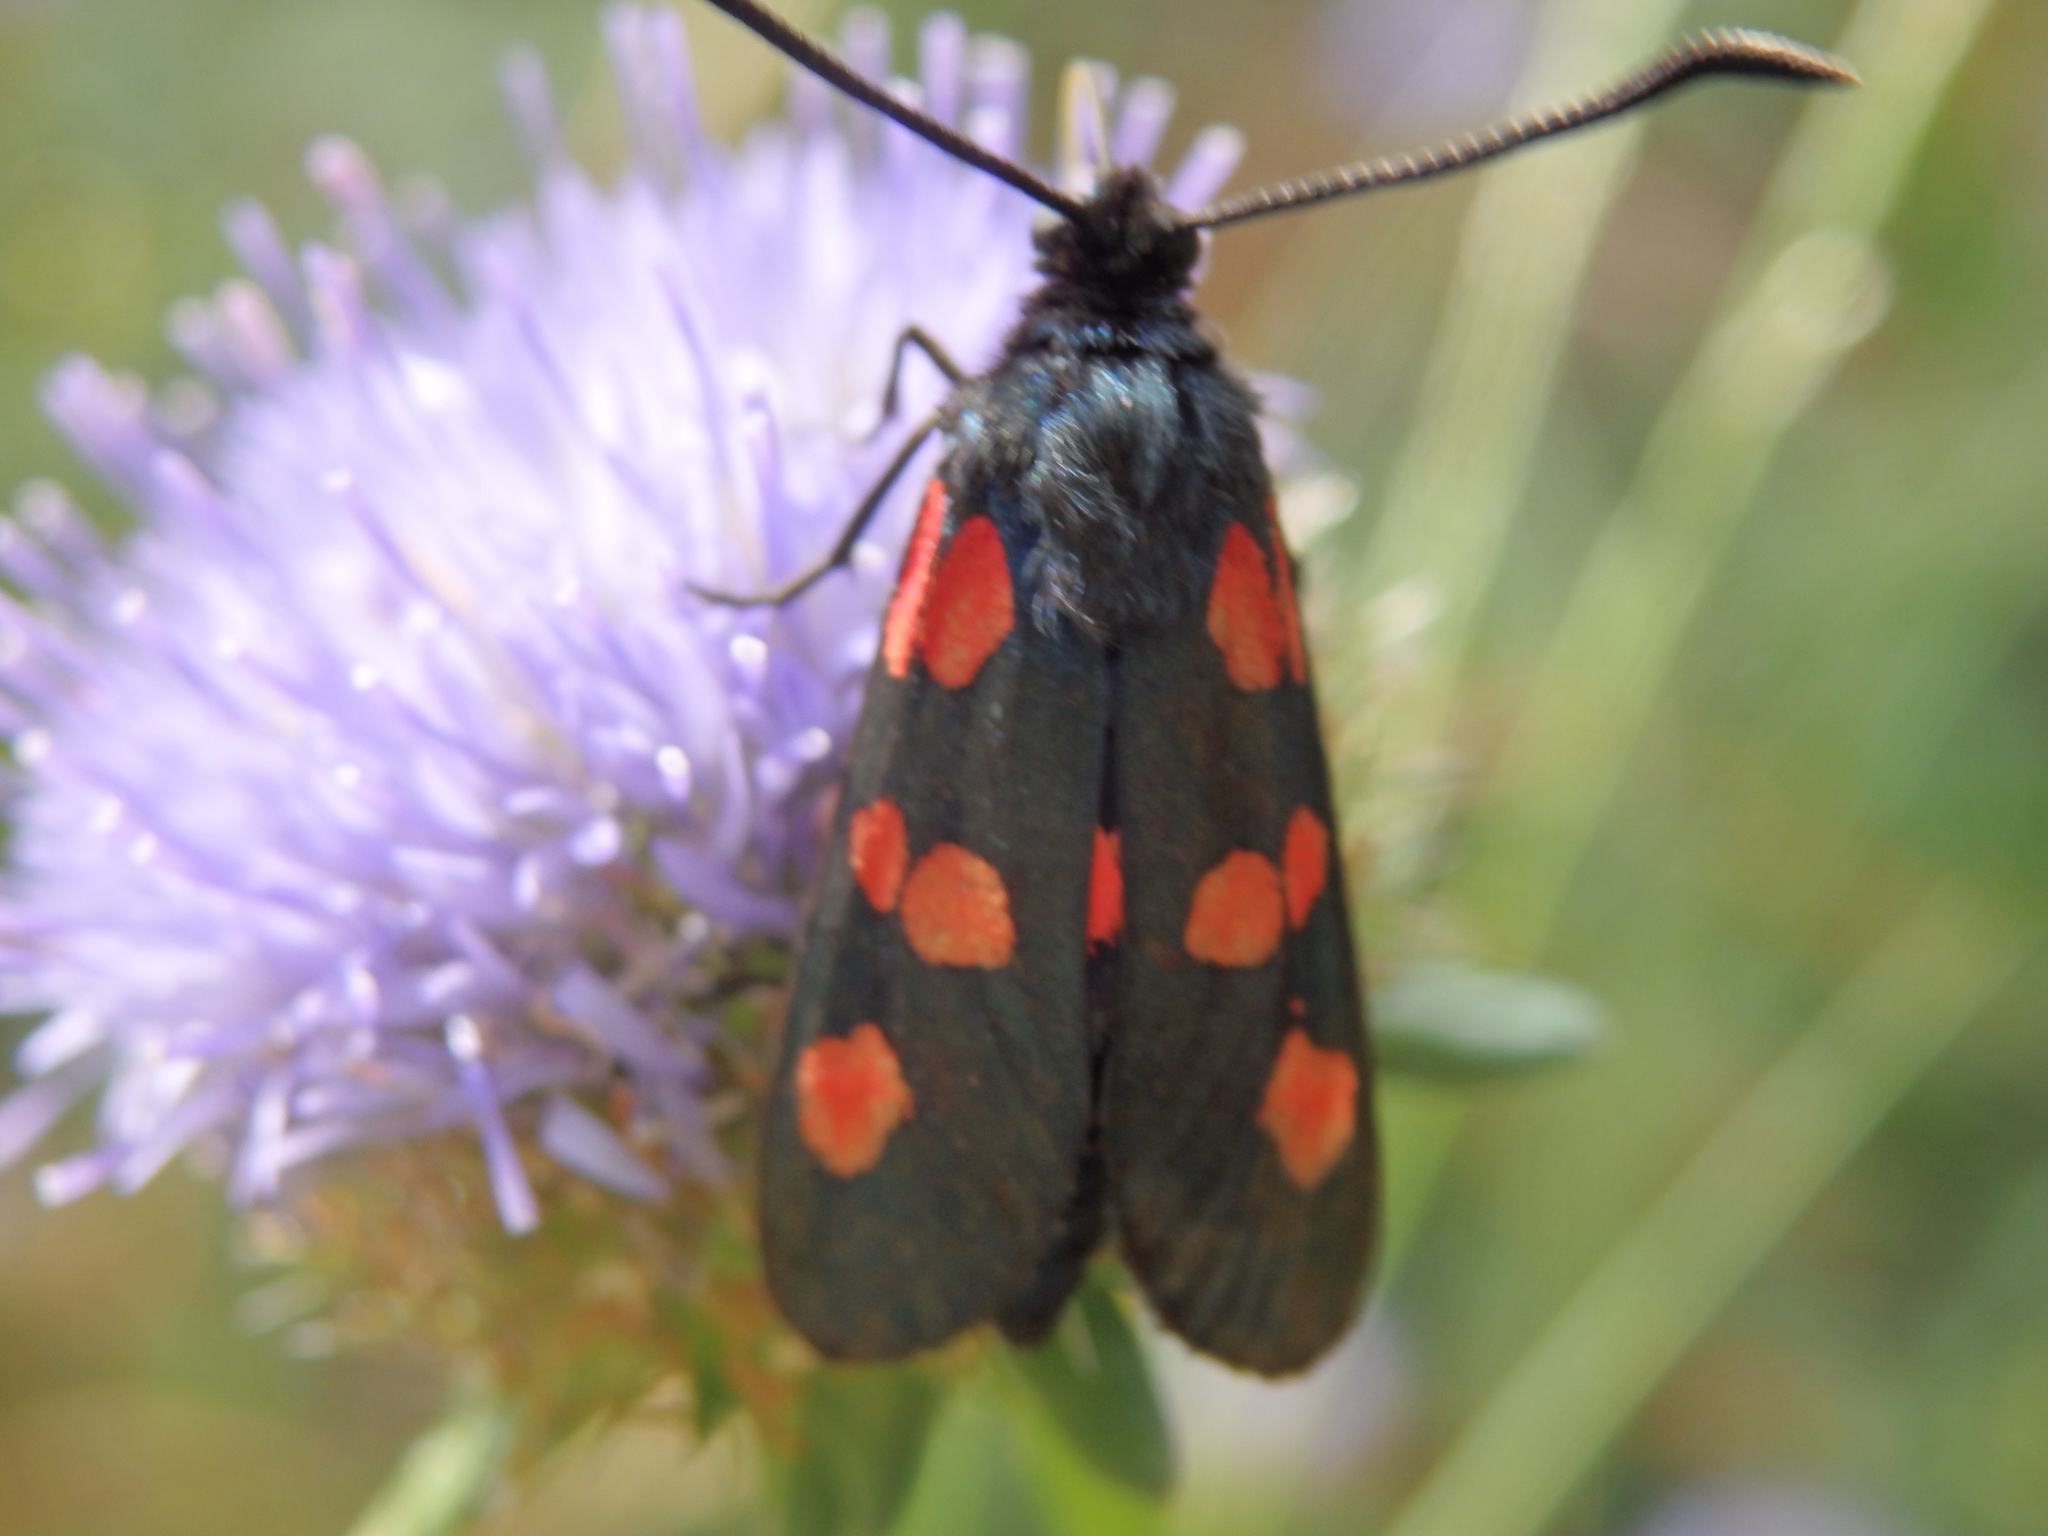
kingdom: Animalia
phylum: Arthropoda
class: Insecta
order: Lepidoptera
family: Zygaenidae
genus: Zygaena
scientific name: Zygaena trifolii
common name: Five-spot burnet
